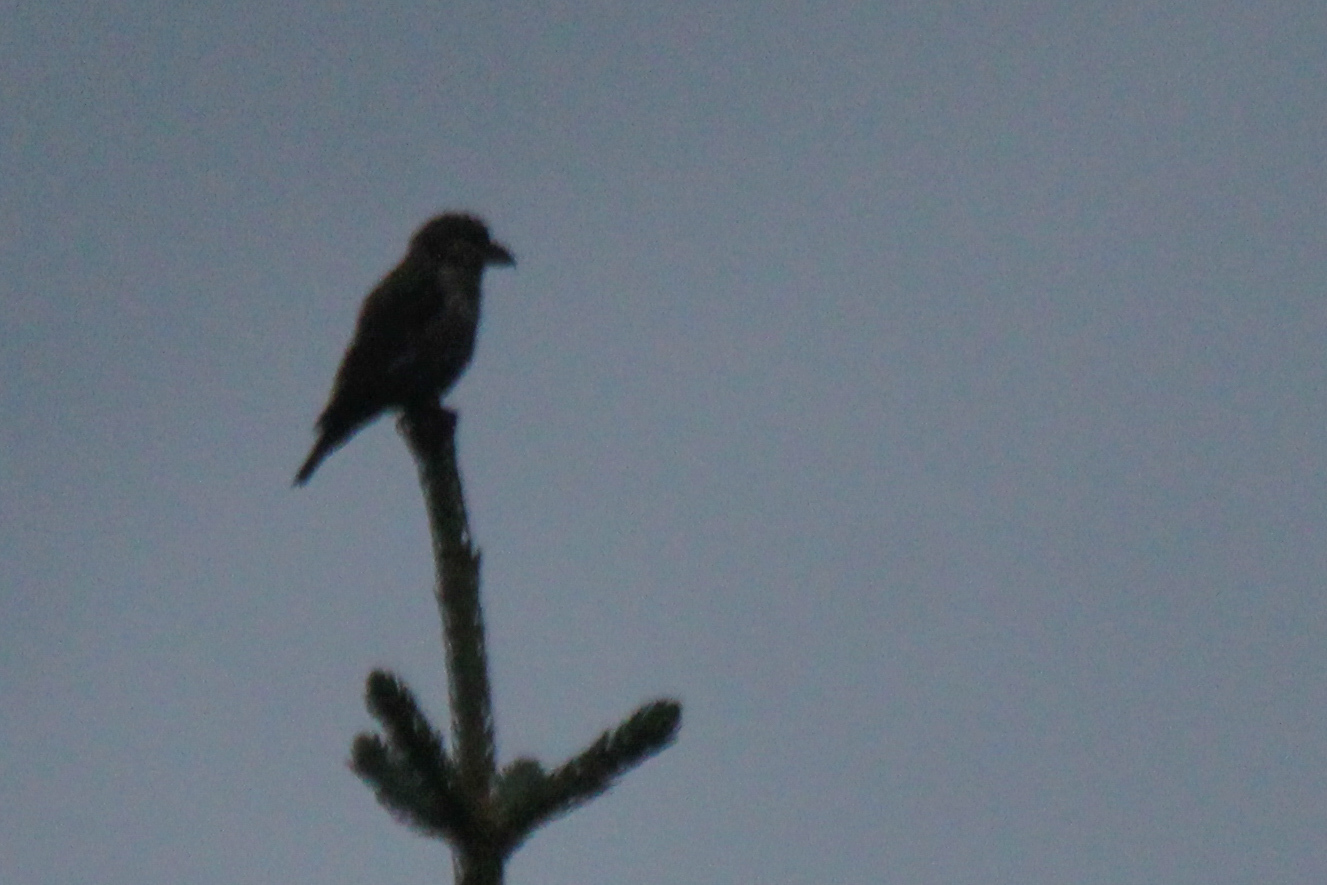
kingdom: Animalia
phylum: Chordata
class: Aves
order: Passeriformes
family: Fringillidae
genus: Loxia
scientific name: Loxia curvirostra
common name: Red crossbill
